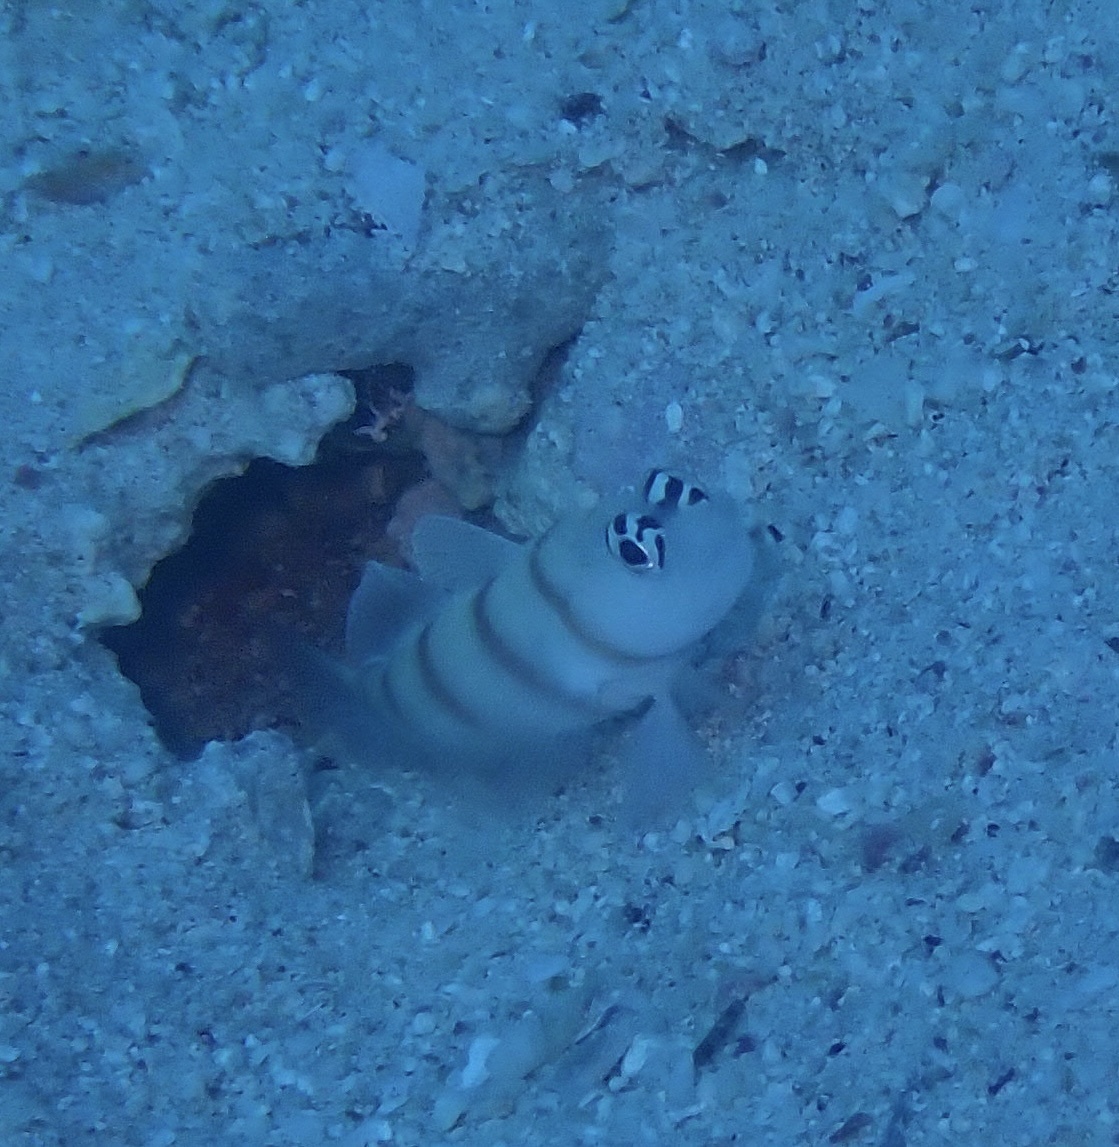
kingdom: Animalia
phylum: Chordata
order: Perciformes
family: Gobiidae
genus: Amblyeleotris
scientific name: Amblyeleotris steinitzi
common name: Steinitz' prawn-goby
